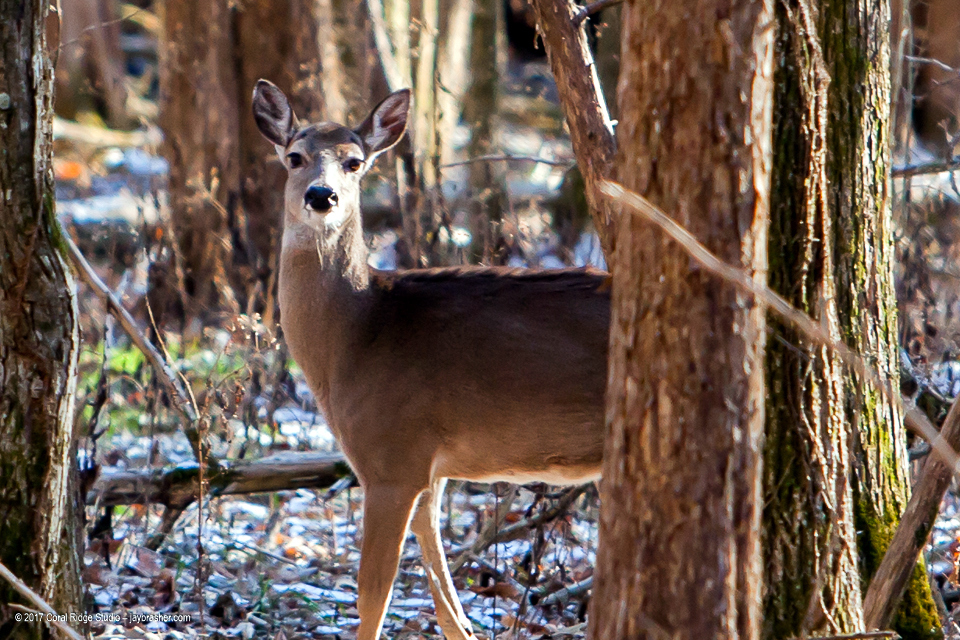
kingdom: Animalia
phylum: Chordata
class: Mammalia
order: Artiodactyla
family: Cervidae
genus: Odocoileus
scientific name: Odocoileus virginianus
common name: White-tailed deer
